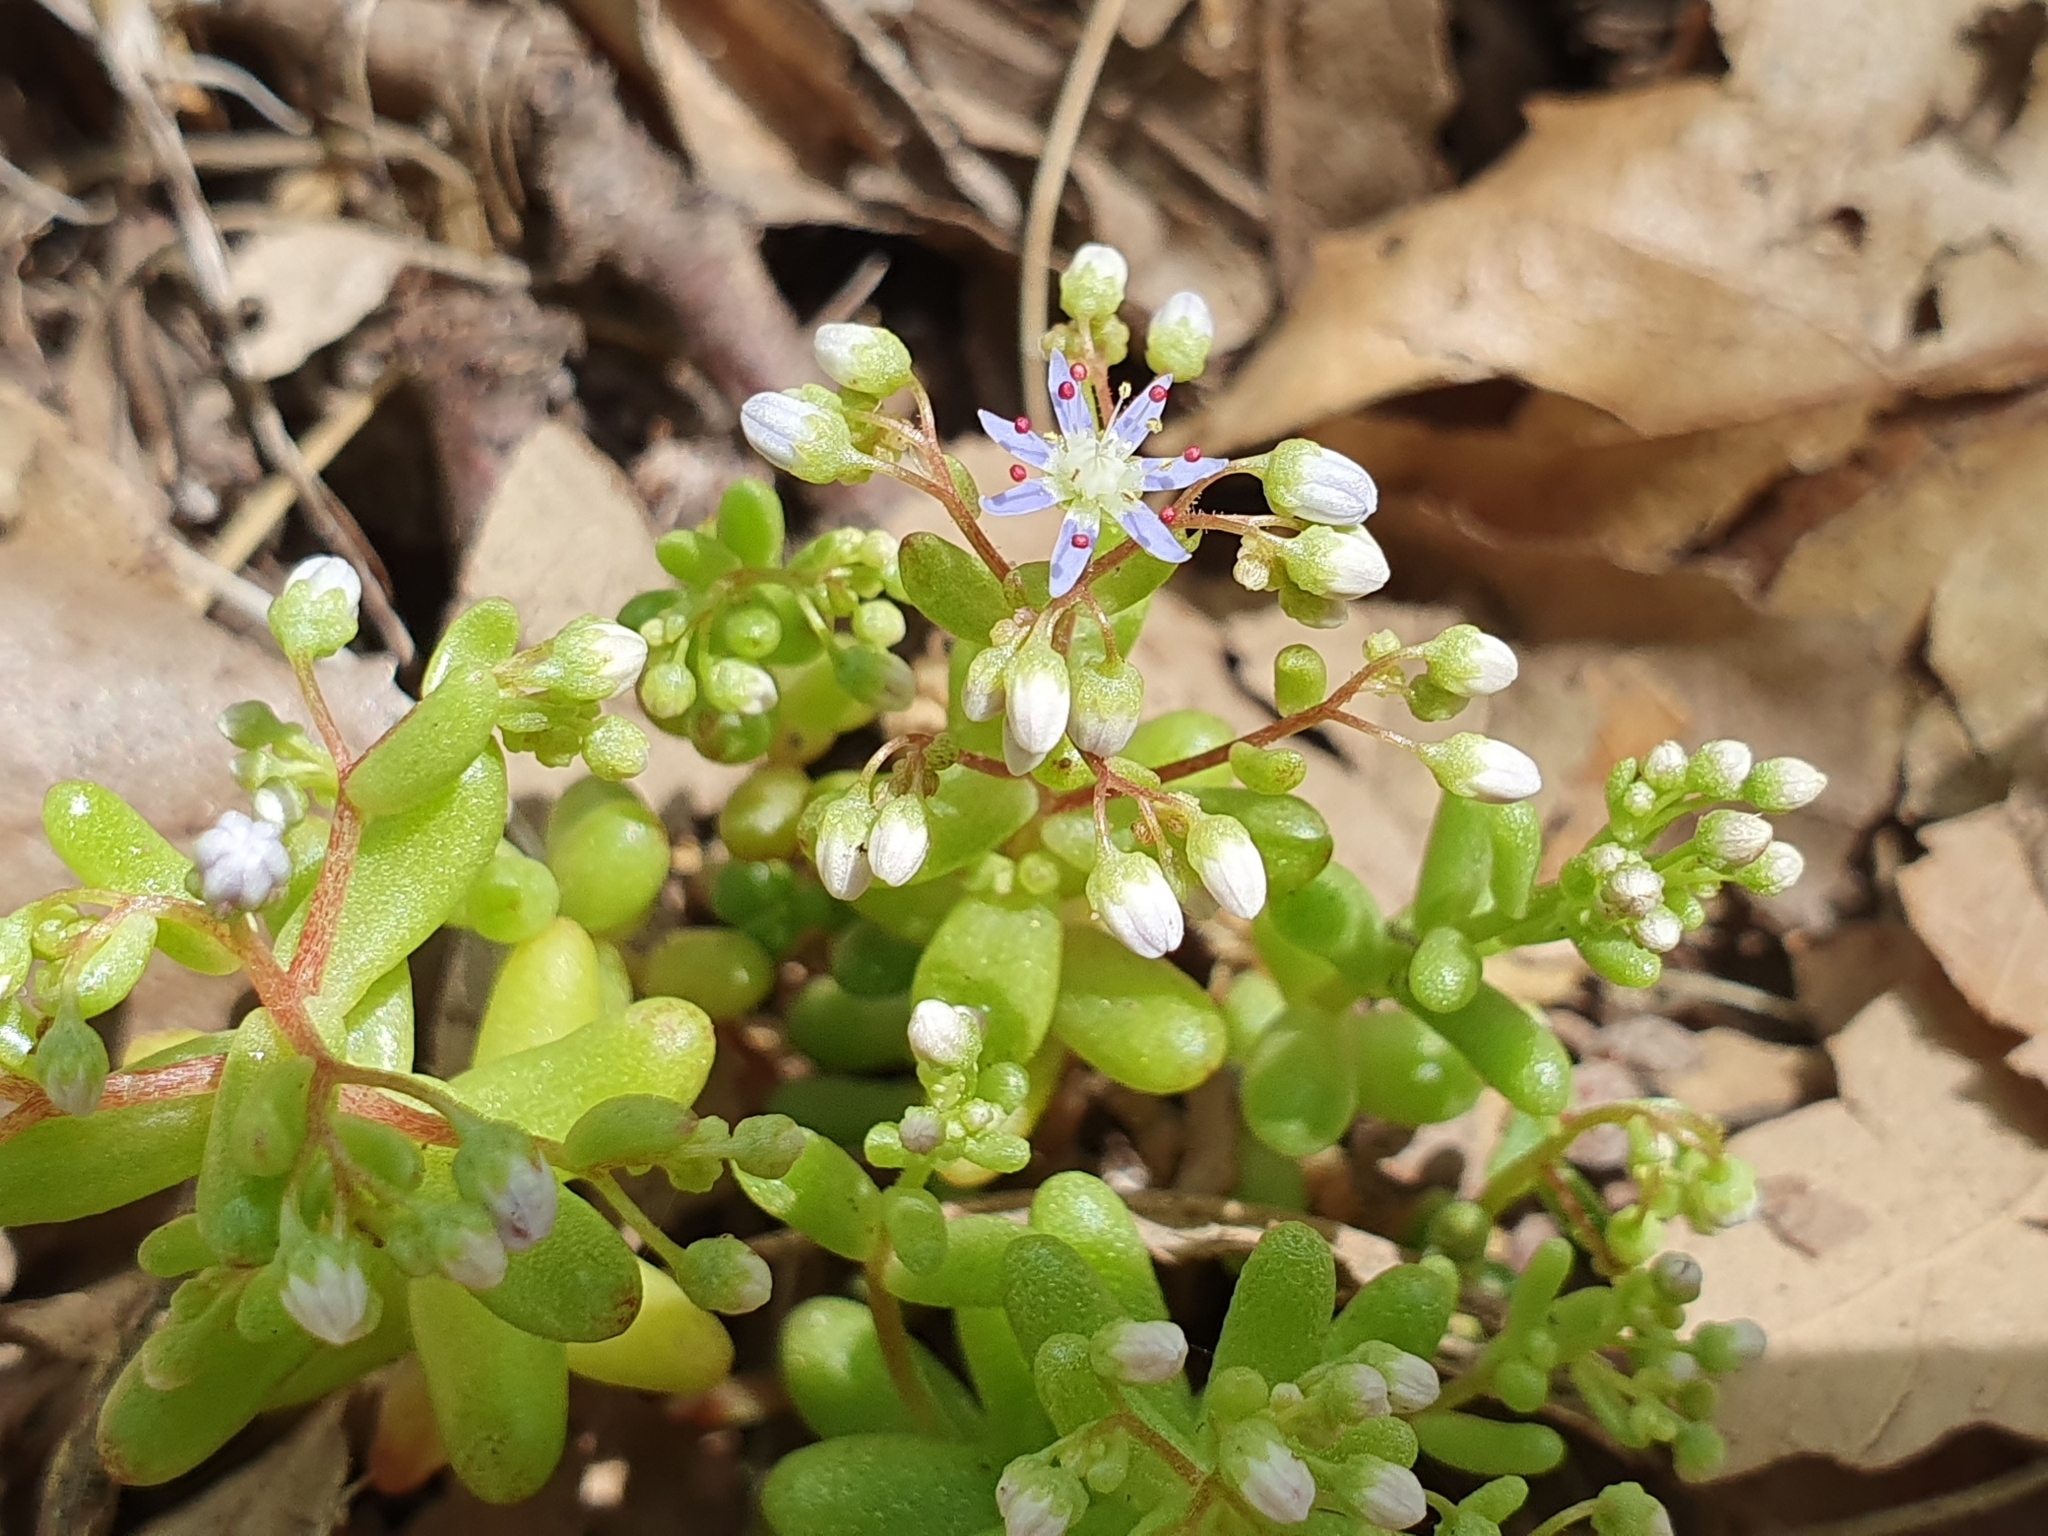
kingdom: Plantae
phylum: Tracheophyta
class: Magnoliopsida
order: Saxifragales
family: Crassulaceae
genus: Sedum
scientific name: Sedum caeruleum
